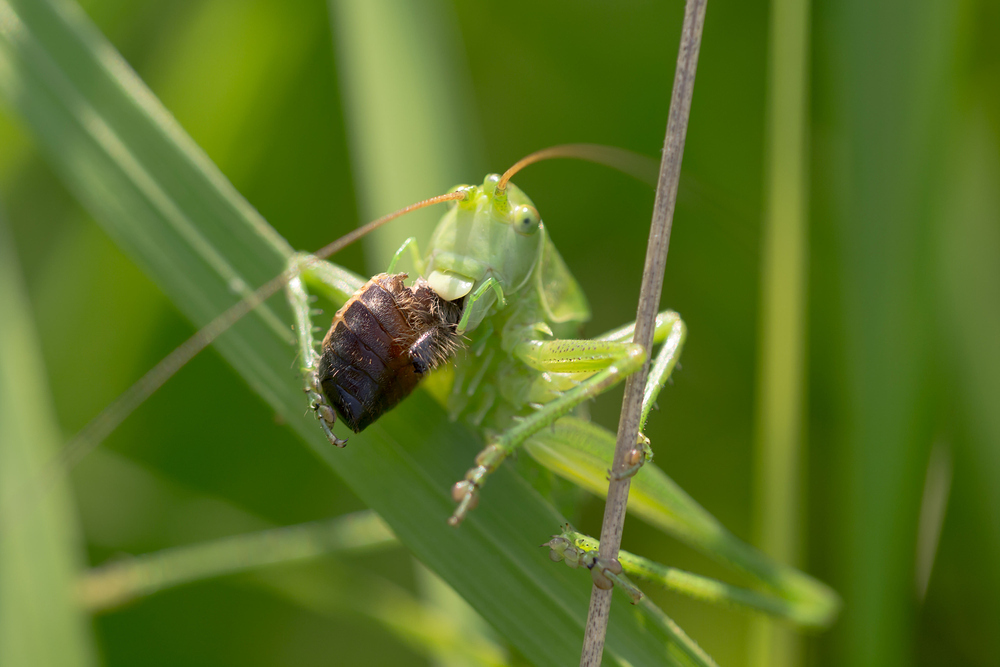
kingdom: Animalia
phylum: Arthropoda
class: Insecta
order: Orthoptera
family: Tettigoniidae
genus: Tettigonia
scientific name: Tettigonia viridissima
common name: Great green bush-cricket
